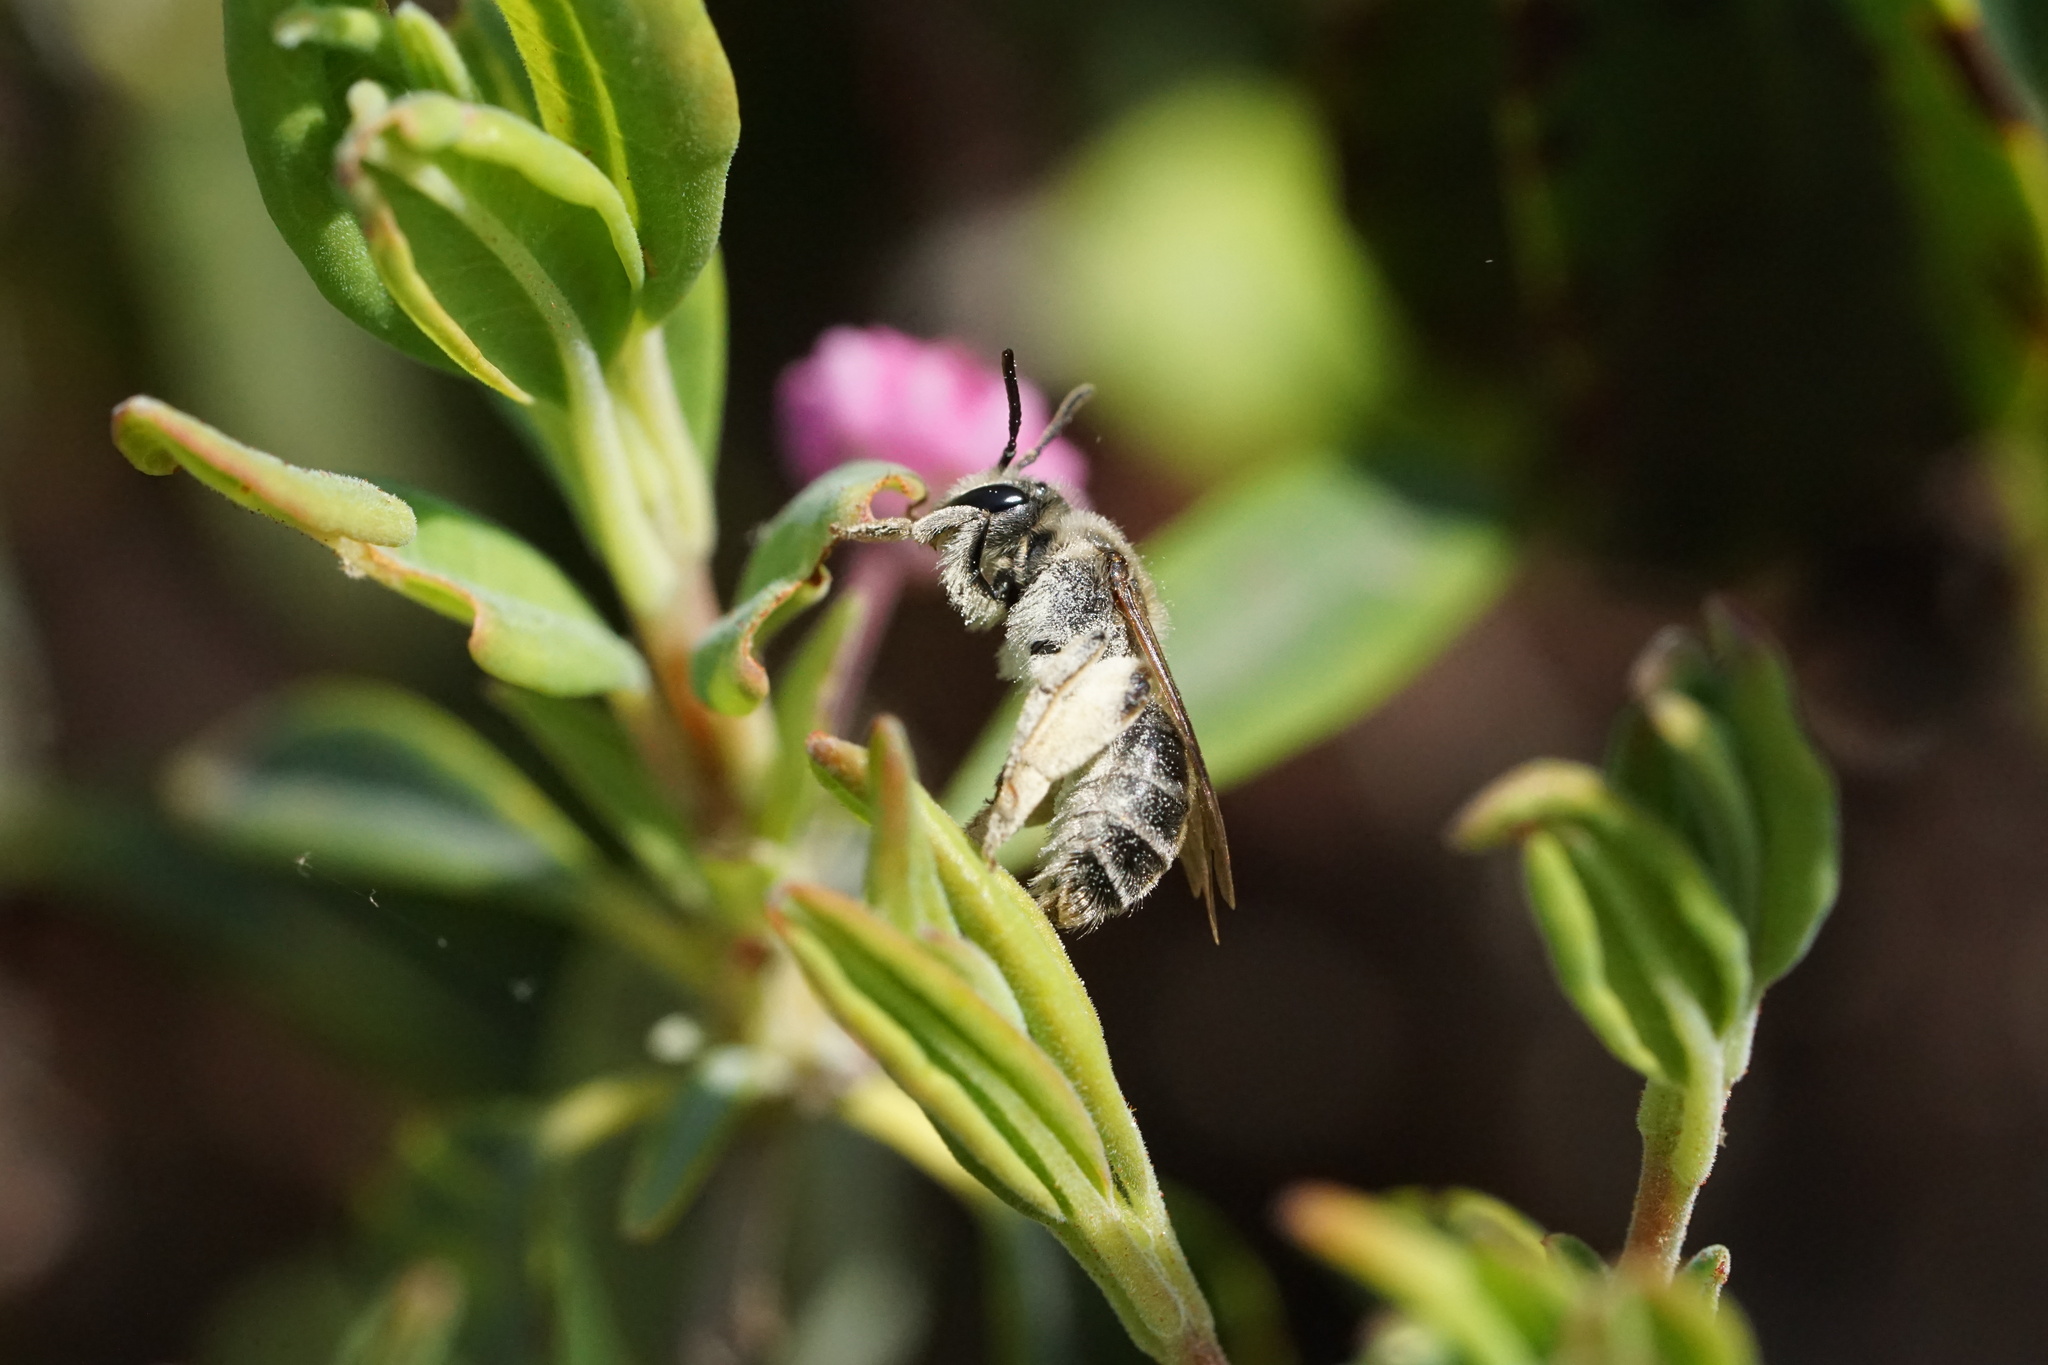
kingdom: Animalia
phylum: Arthropoda
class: Insecta
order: Hymenoptera
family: Andrenidae
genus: Andrena
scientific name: Andrena kalmiae
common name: Kalmia miner bee
